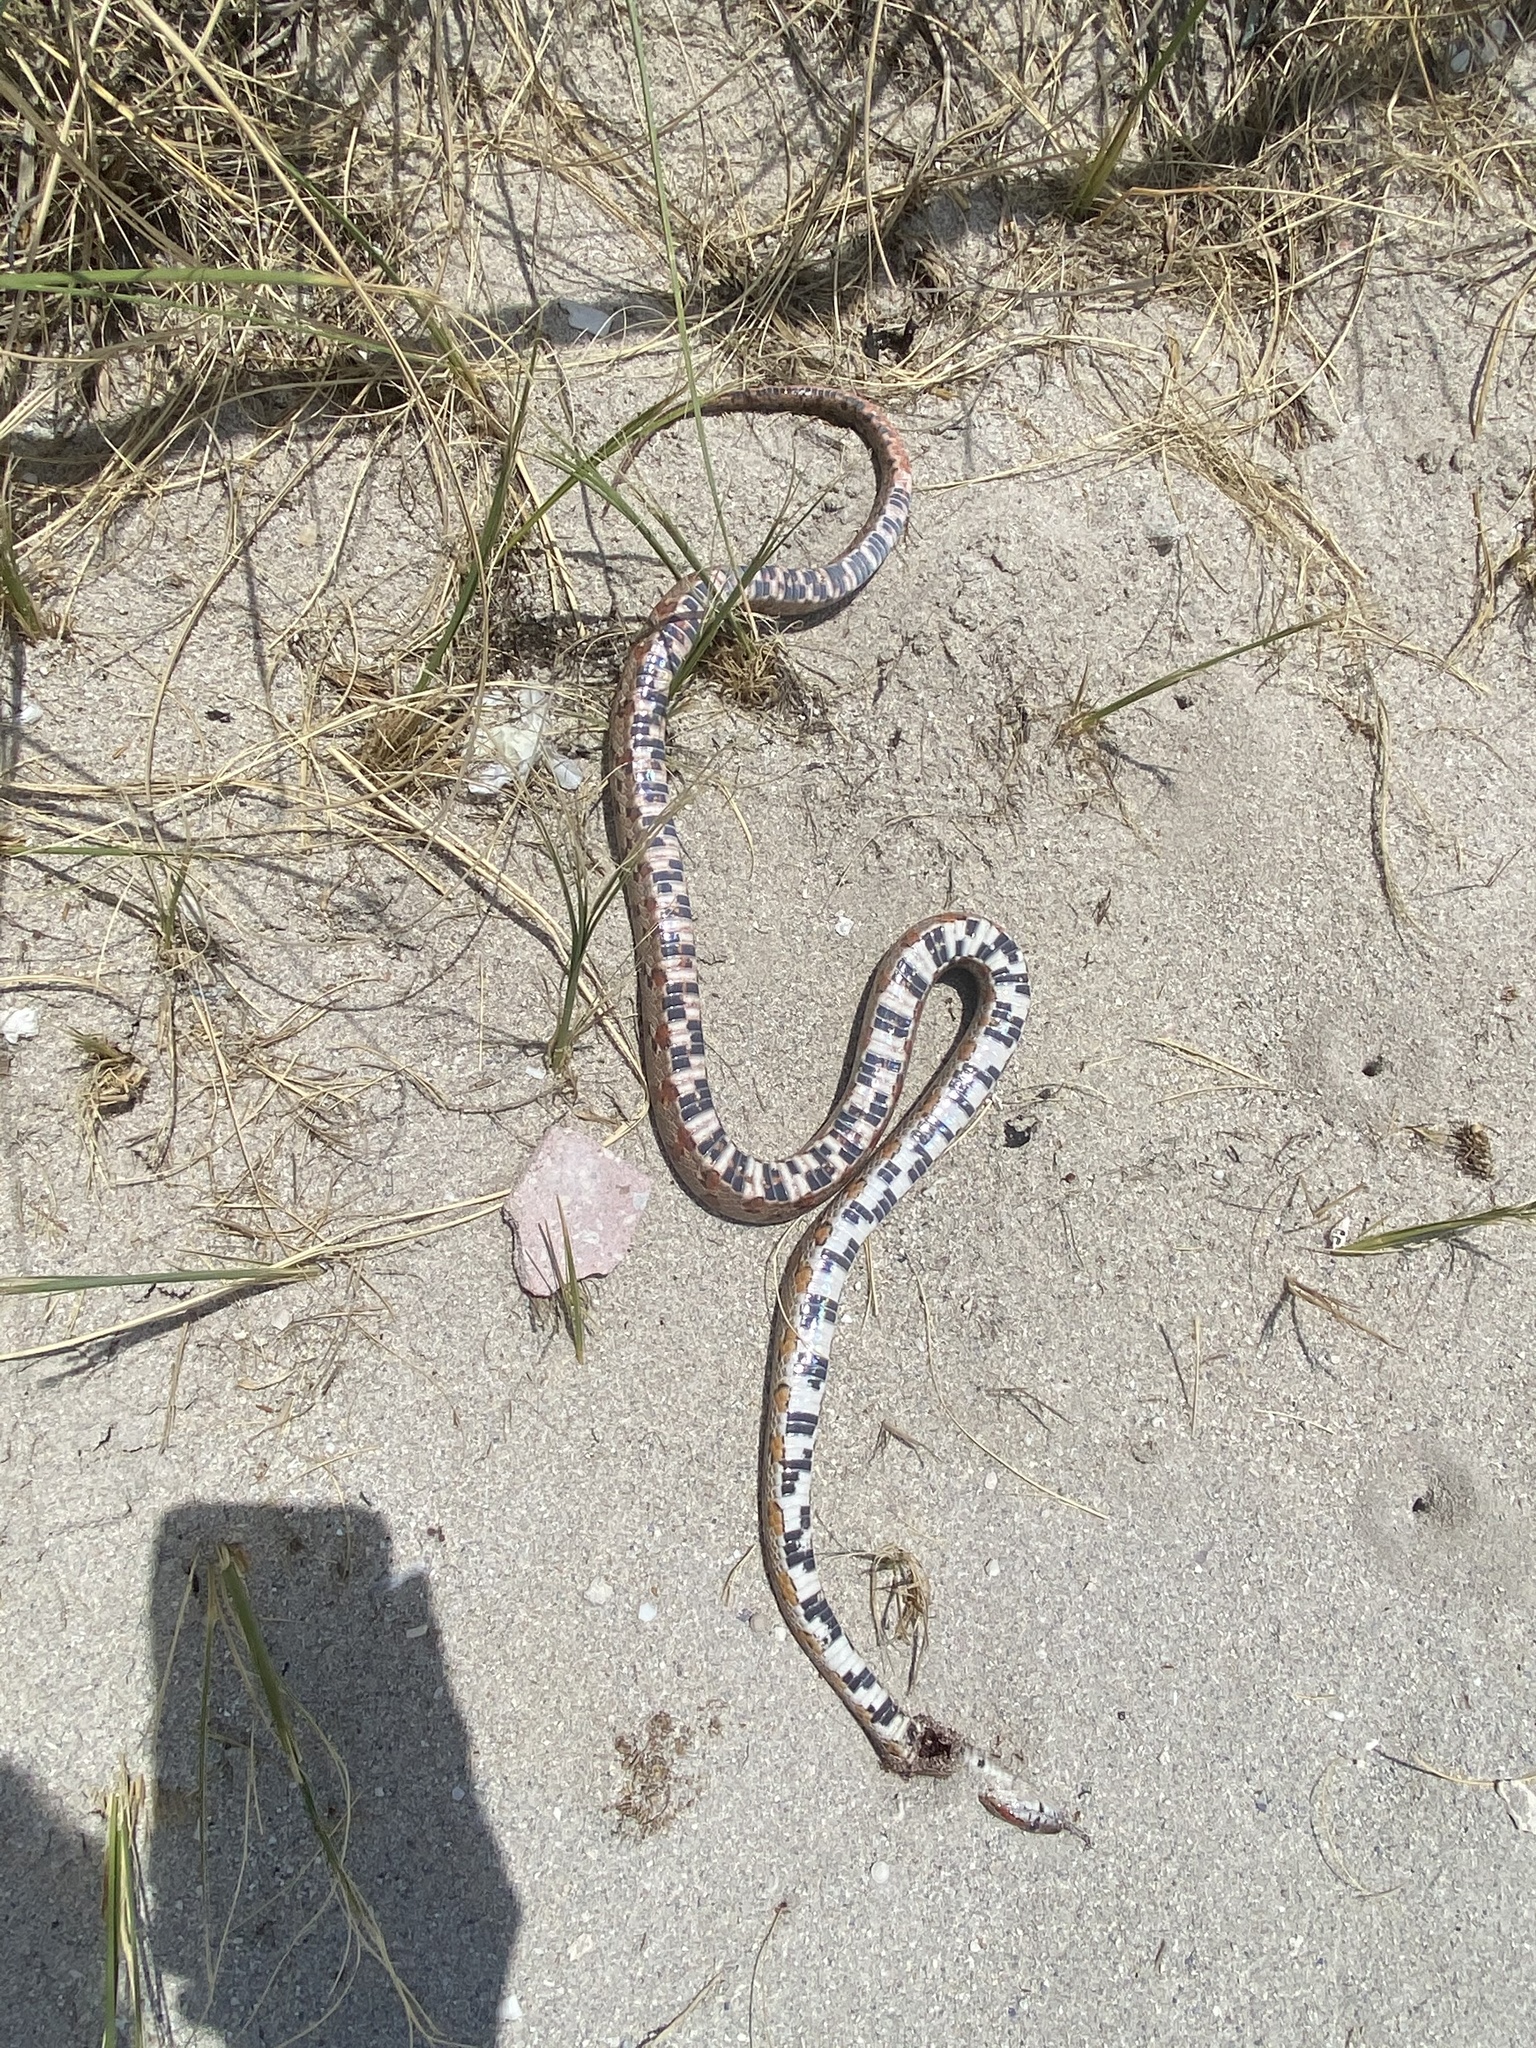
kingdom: Animalia
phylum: Chordata
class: Squamata
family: Colubridae
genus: Pantherophis
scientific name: Pantherophis guttatus
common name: Red cornsnake
